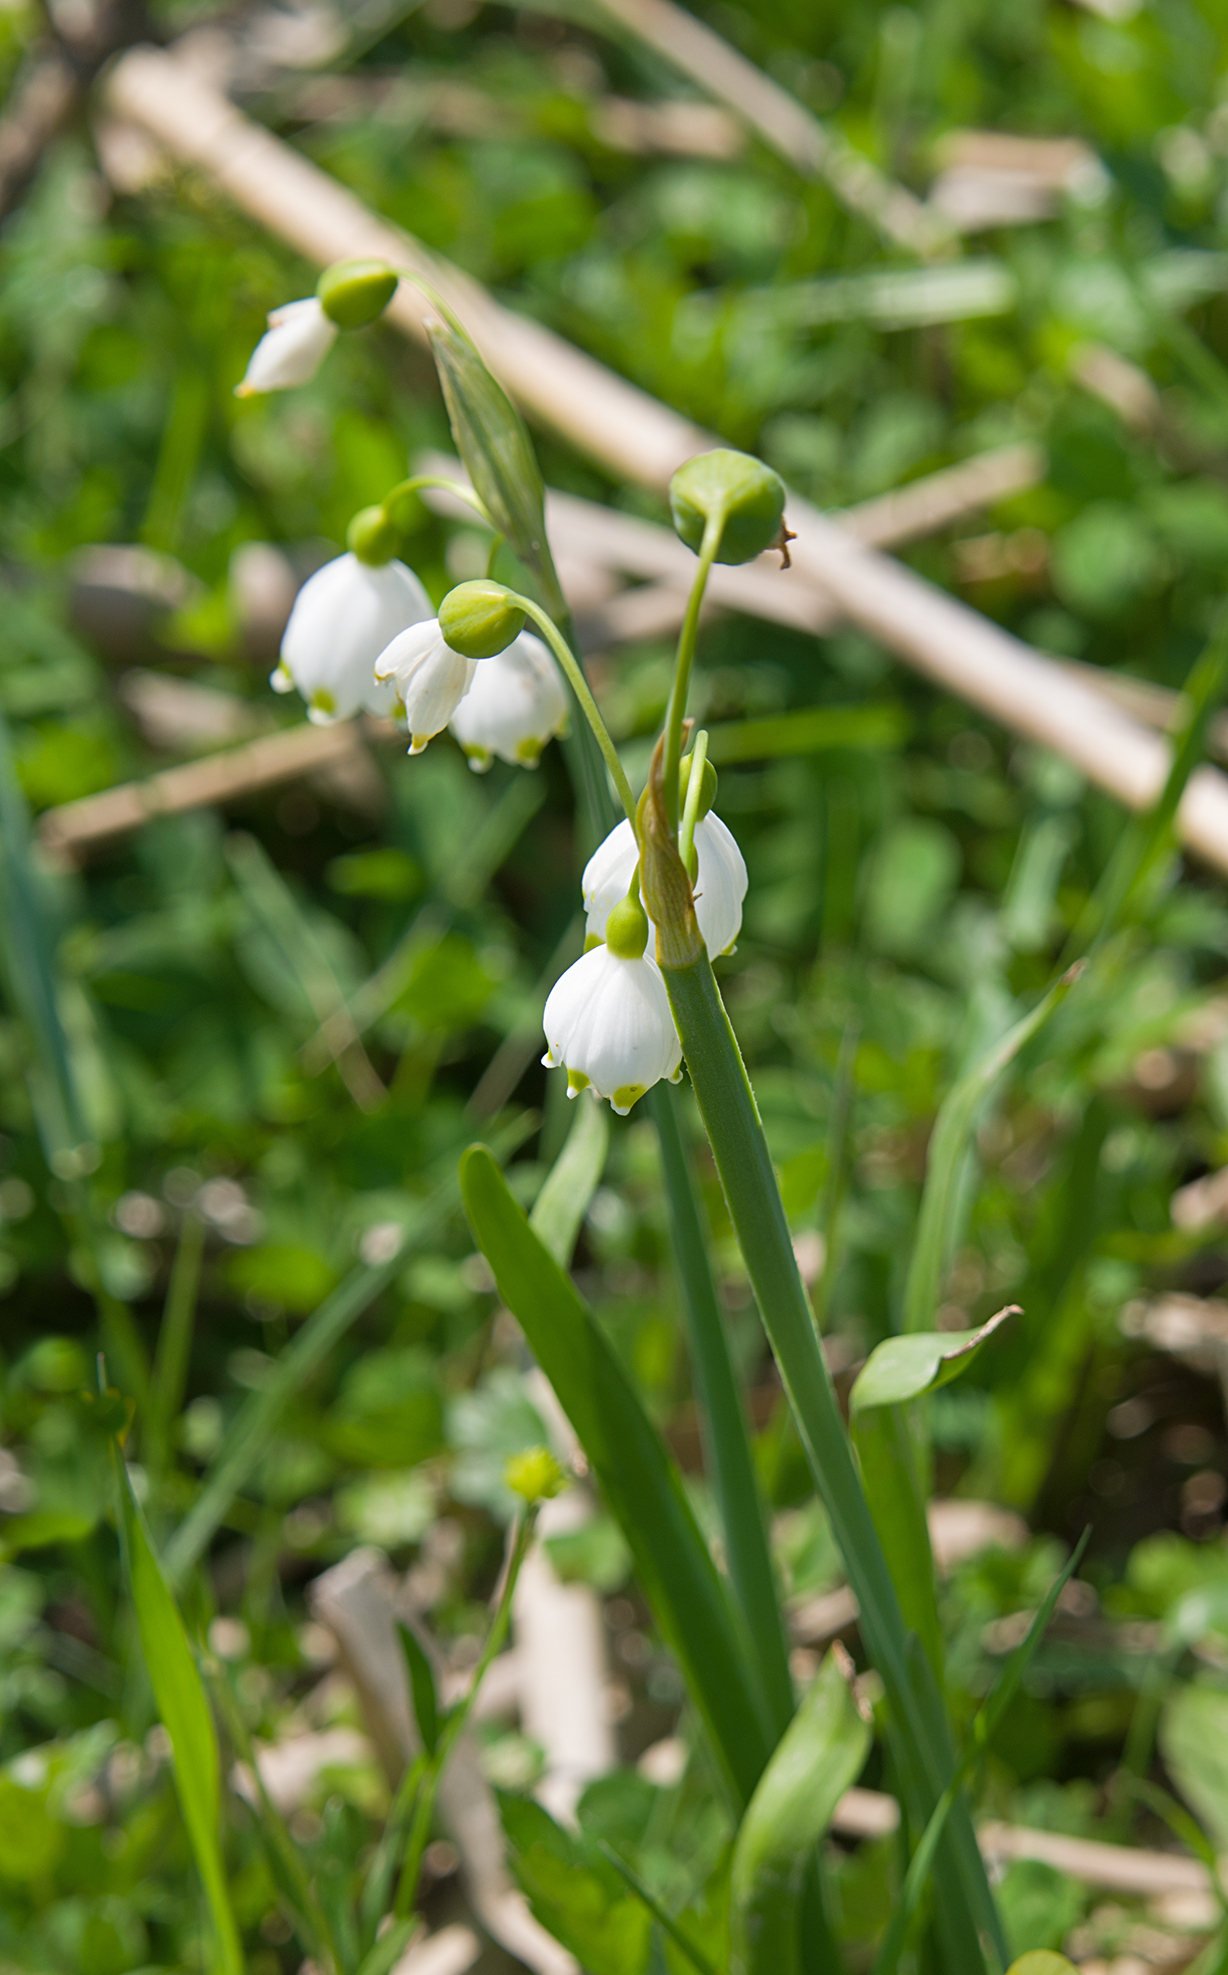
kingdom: Plantae
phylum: Tracheophyta
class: Liliopsida
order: Asparagales
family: Amaryllidaceae
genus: Leucojum
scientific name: Leucojum aestivum
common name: Summer snowflake
